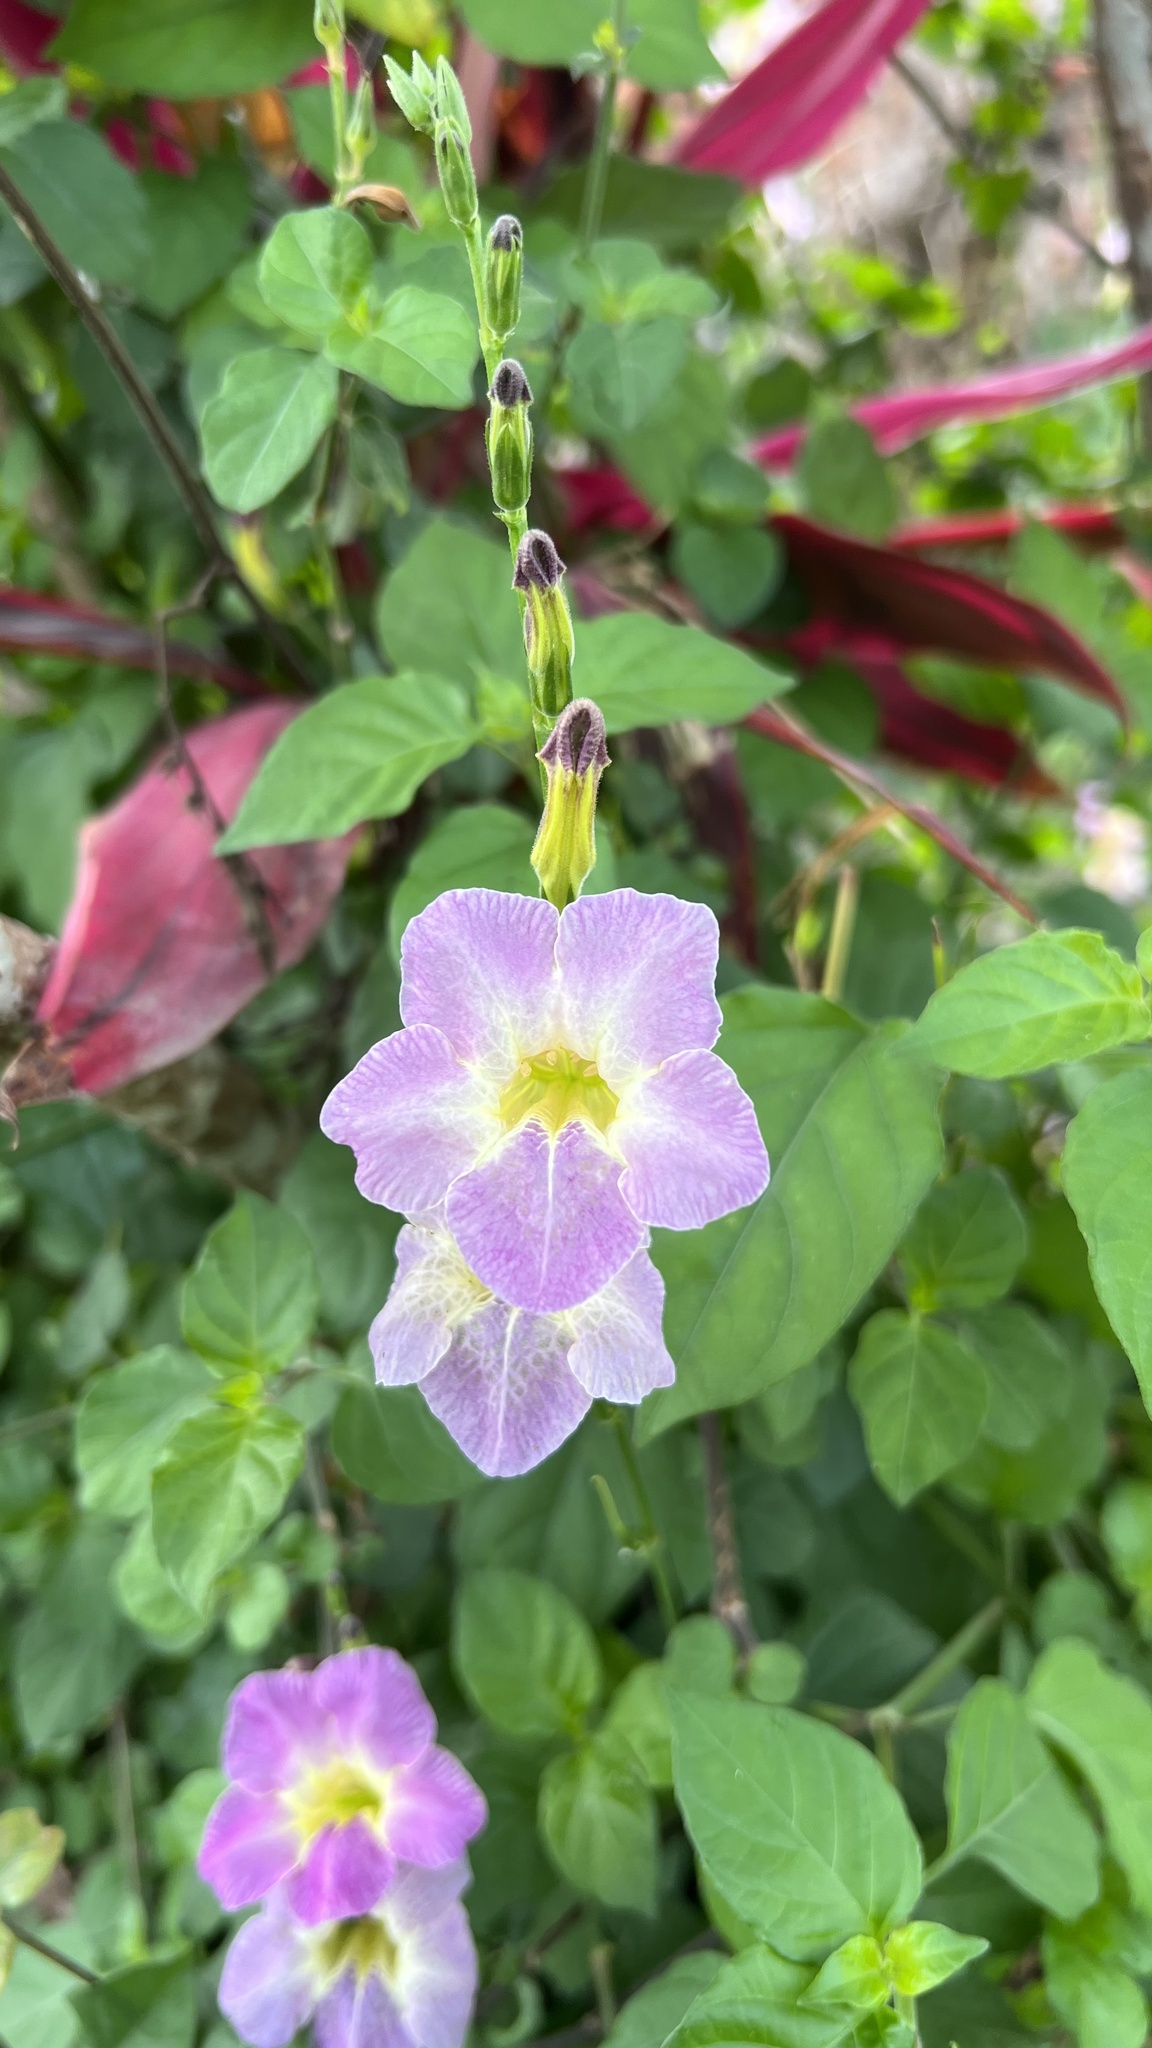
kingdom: Plantae
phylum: Tracheophyta
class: Magnoliopsida
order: Lamiales
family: Acanthaceae
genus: Asystasia
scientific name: Asystasia gangetica
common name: Chinese violet
